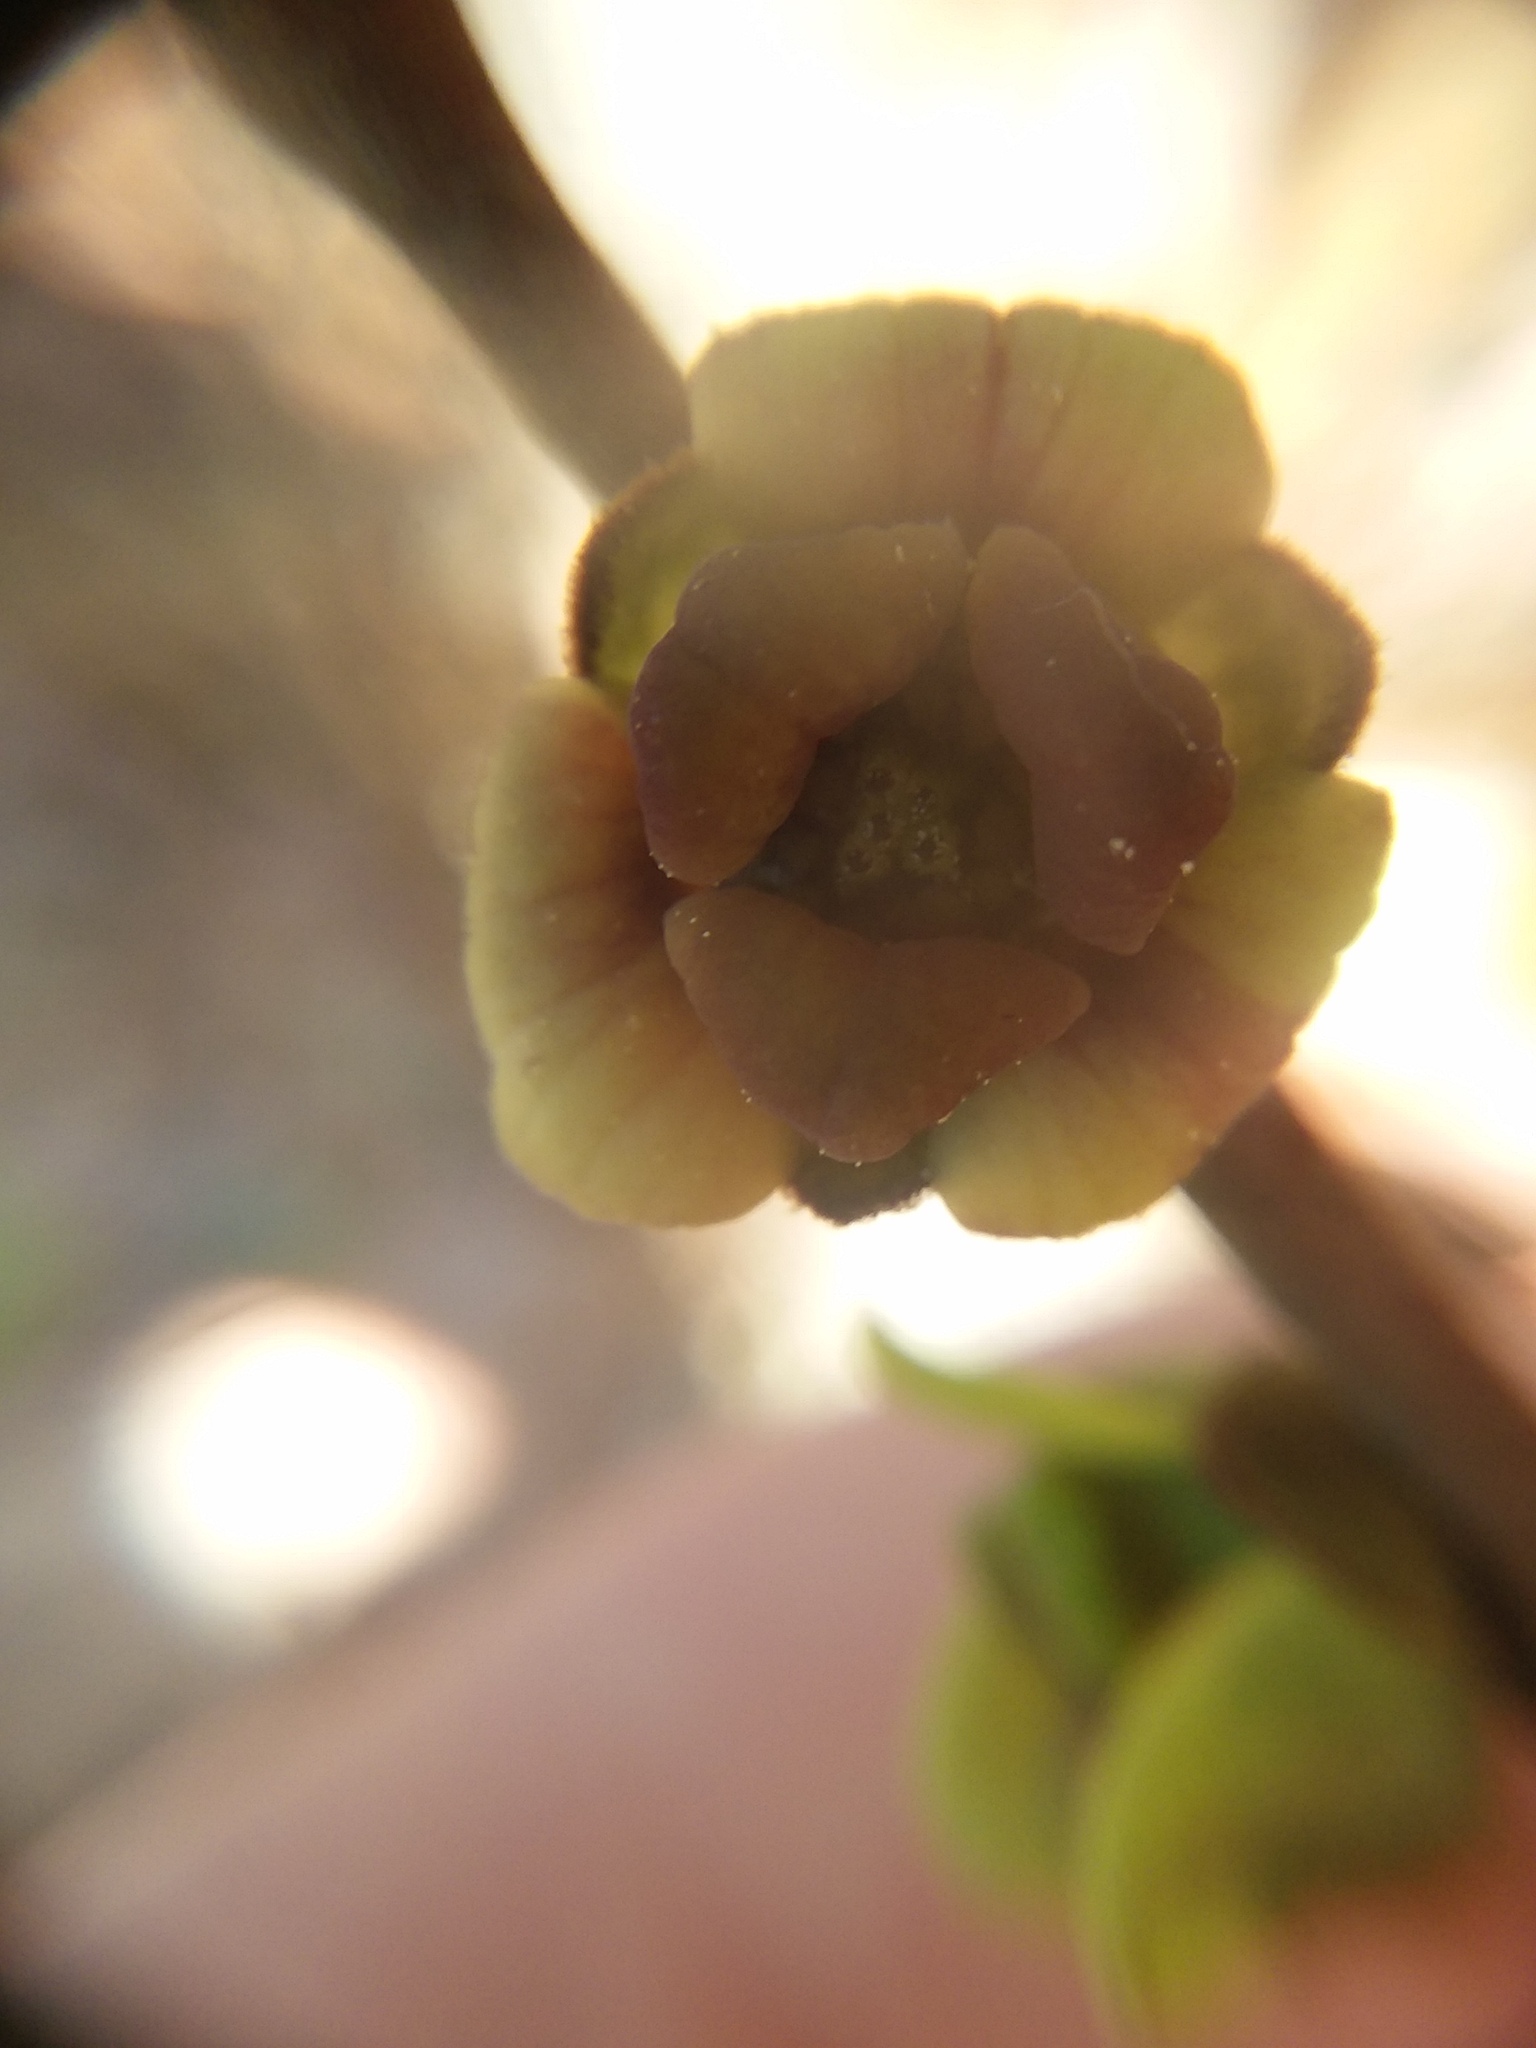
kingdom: Plantae
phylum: Tracheophyta
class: Magnoliopsida
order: Magnoliales
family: Annonaceae
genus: Asimina
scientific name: Asimina parviflora
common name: Dwarf pawpaw
